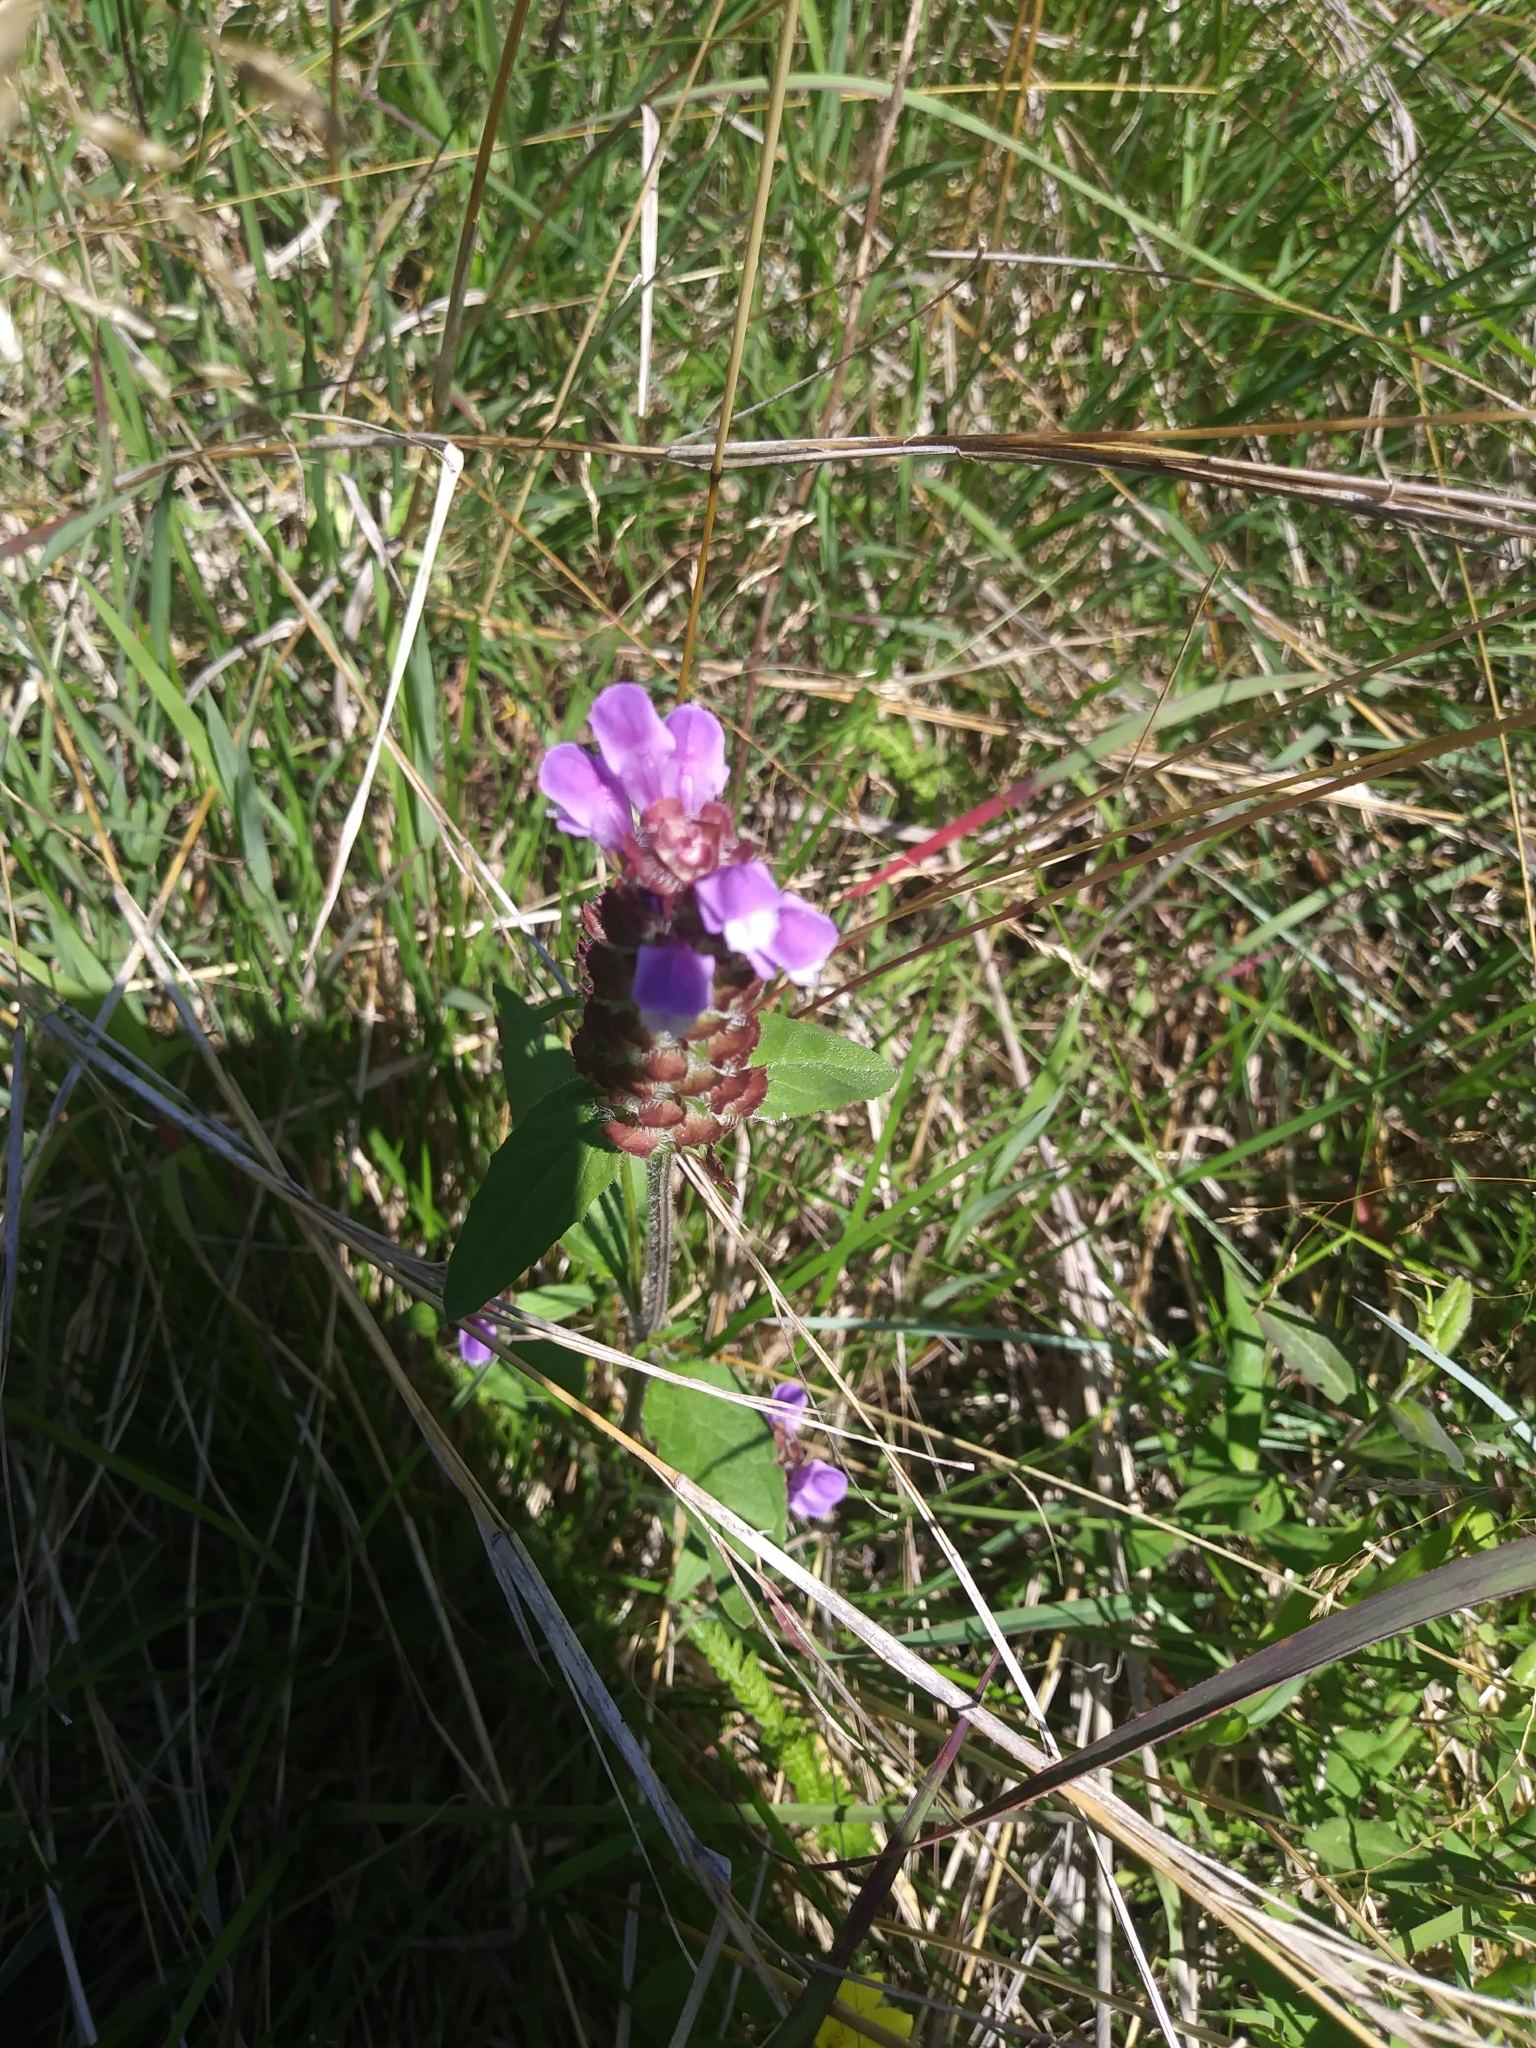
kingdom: Plantae
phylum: Tracheophyta
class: Magnoliopsida
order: Lamiales
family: Lamiaceae
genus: Prunella
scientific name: Prunella vulgaris
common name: Heal-all
